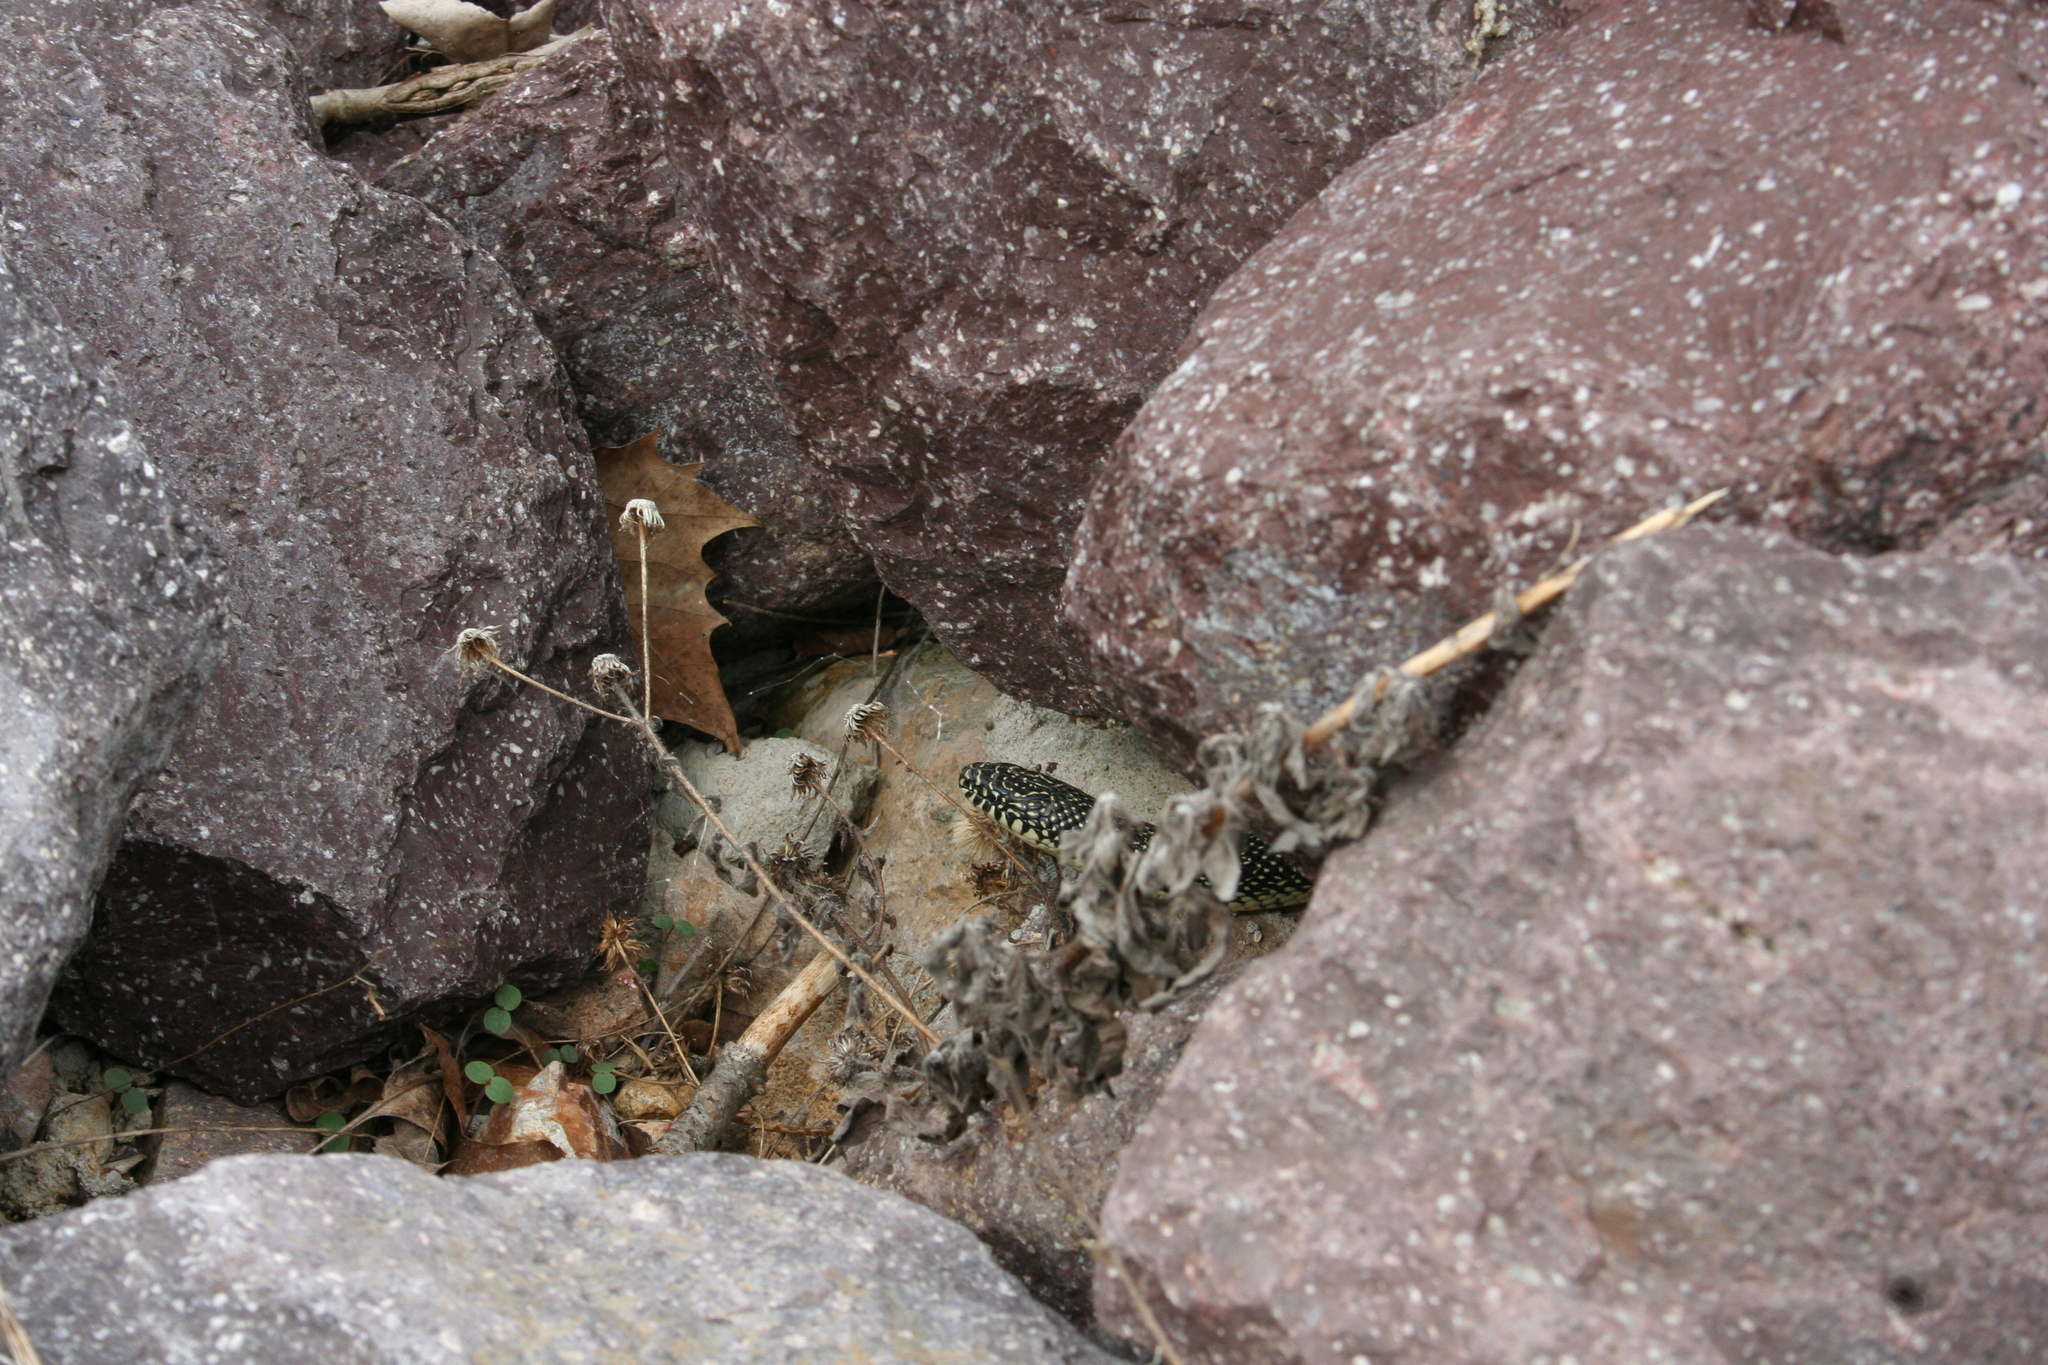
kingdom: Animalia
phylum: Chordata
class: Squamata
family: Colubridae
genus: Lampropeltis
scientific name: Lampropeltis holbrooki
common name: Speckled kingsnake
